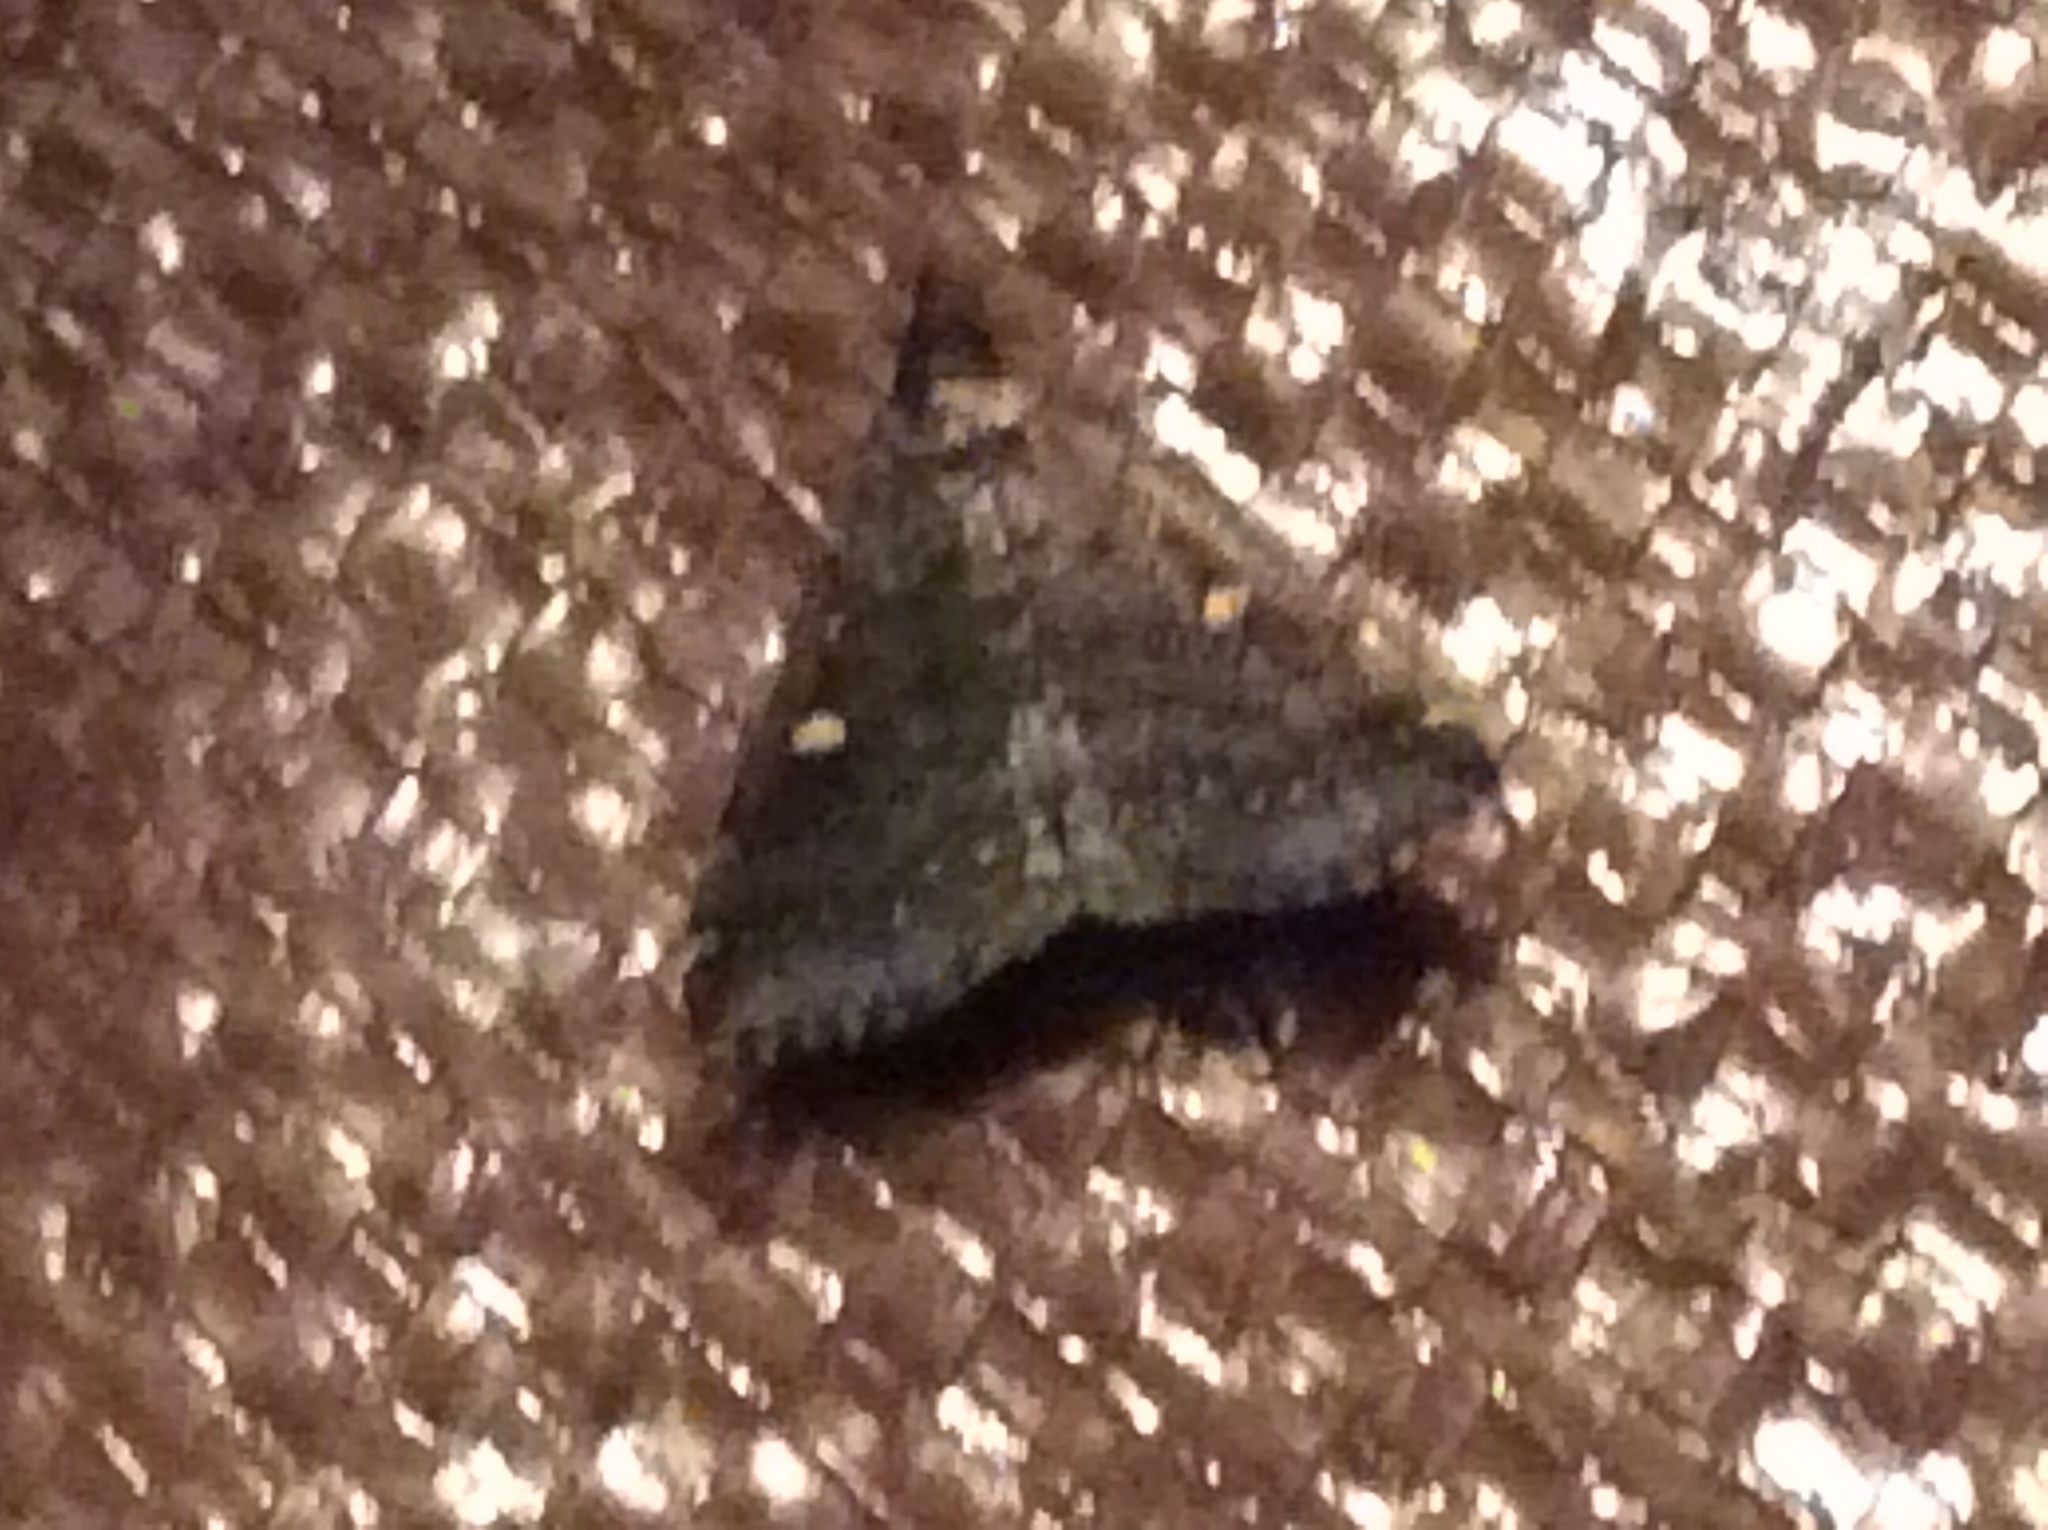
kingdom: Animalia
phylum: Arthropoda
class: Insecta
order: Lepidoptera
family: Erebidae
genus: Tetanolita
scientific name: Tetanolita mynesalis
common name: Smoky tetanolita moth
